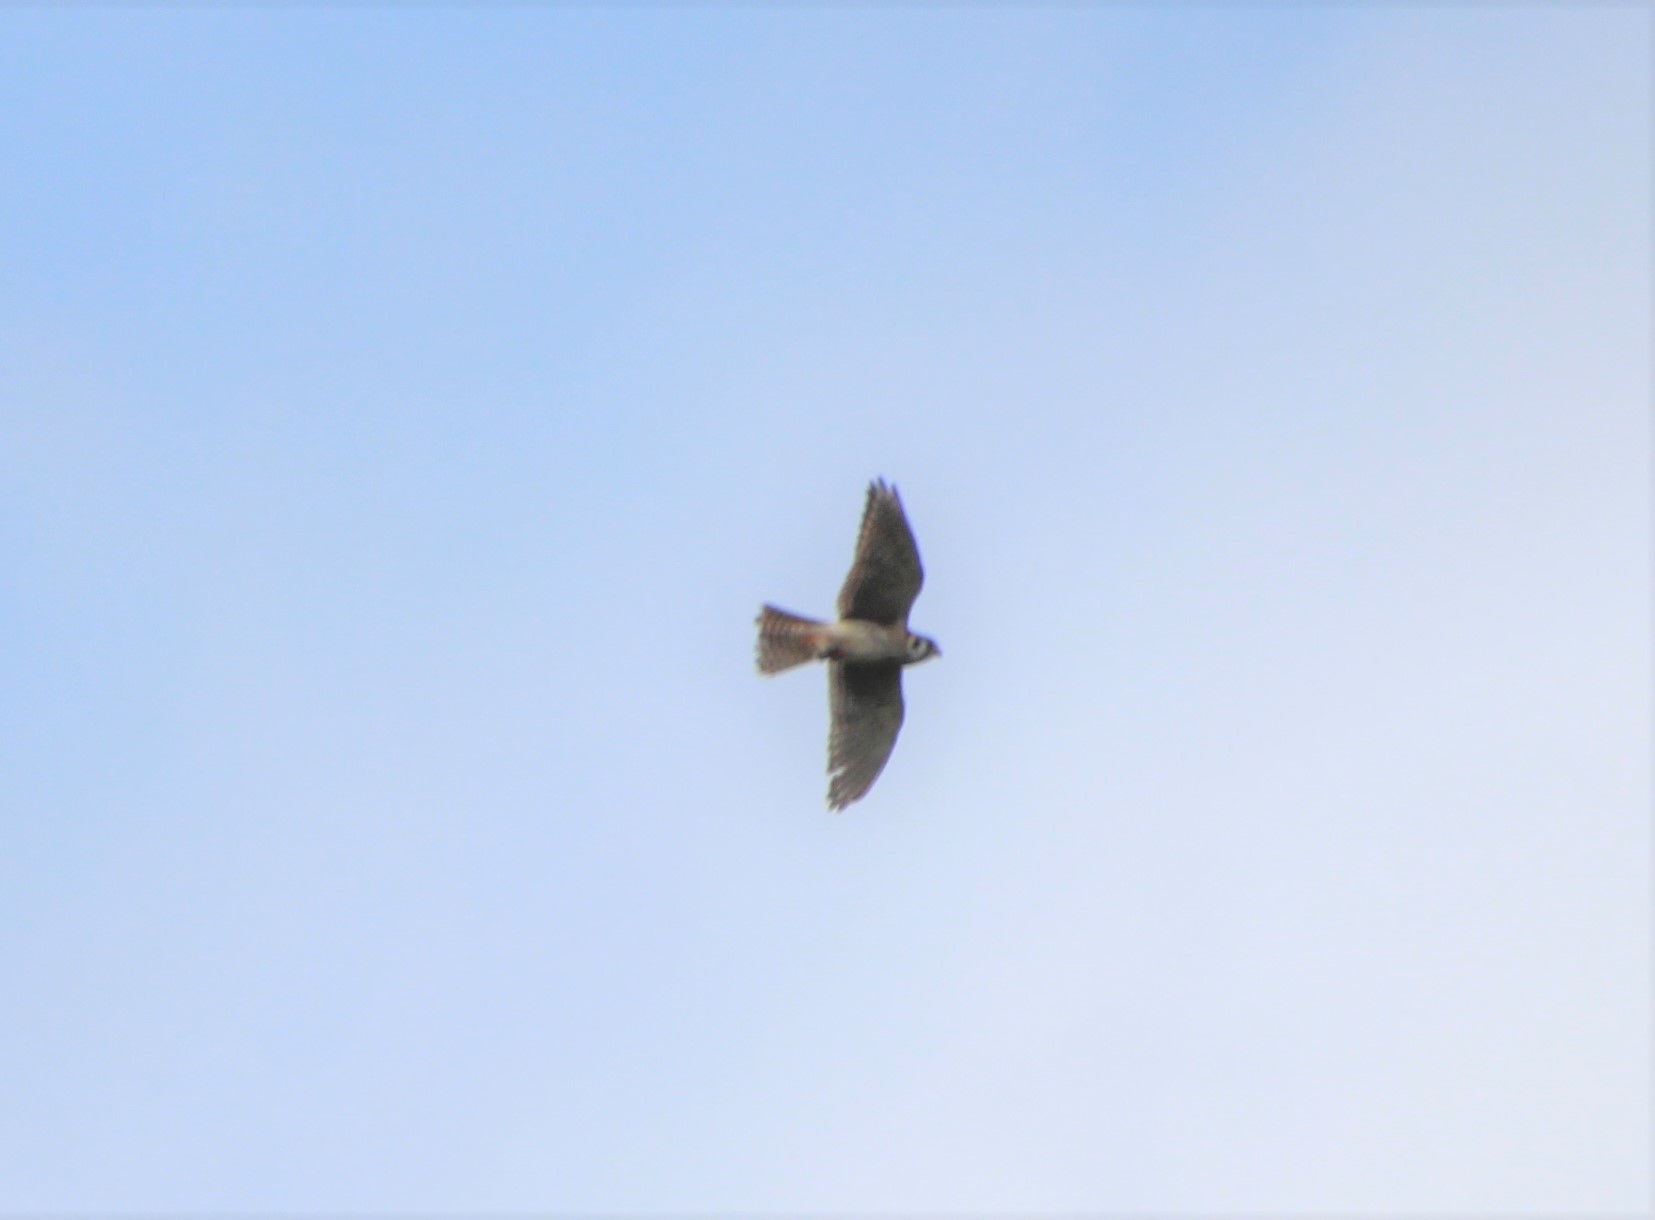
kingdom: Animalia
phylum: Chordata
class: Aves
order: Falconiformes
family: Falconidae
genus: Falco
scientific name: Falco sparverius
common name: American kestrel
